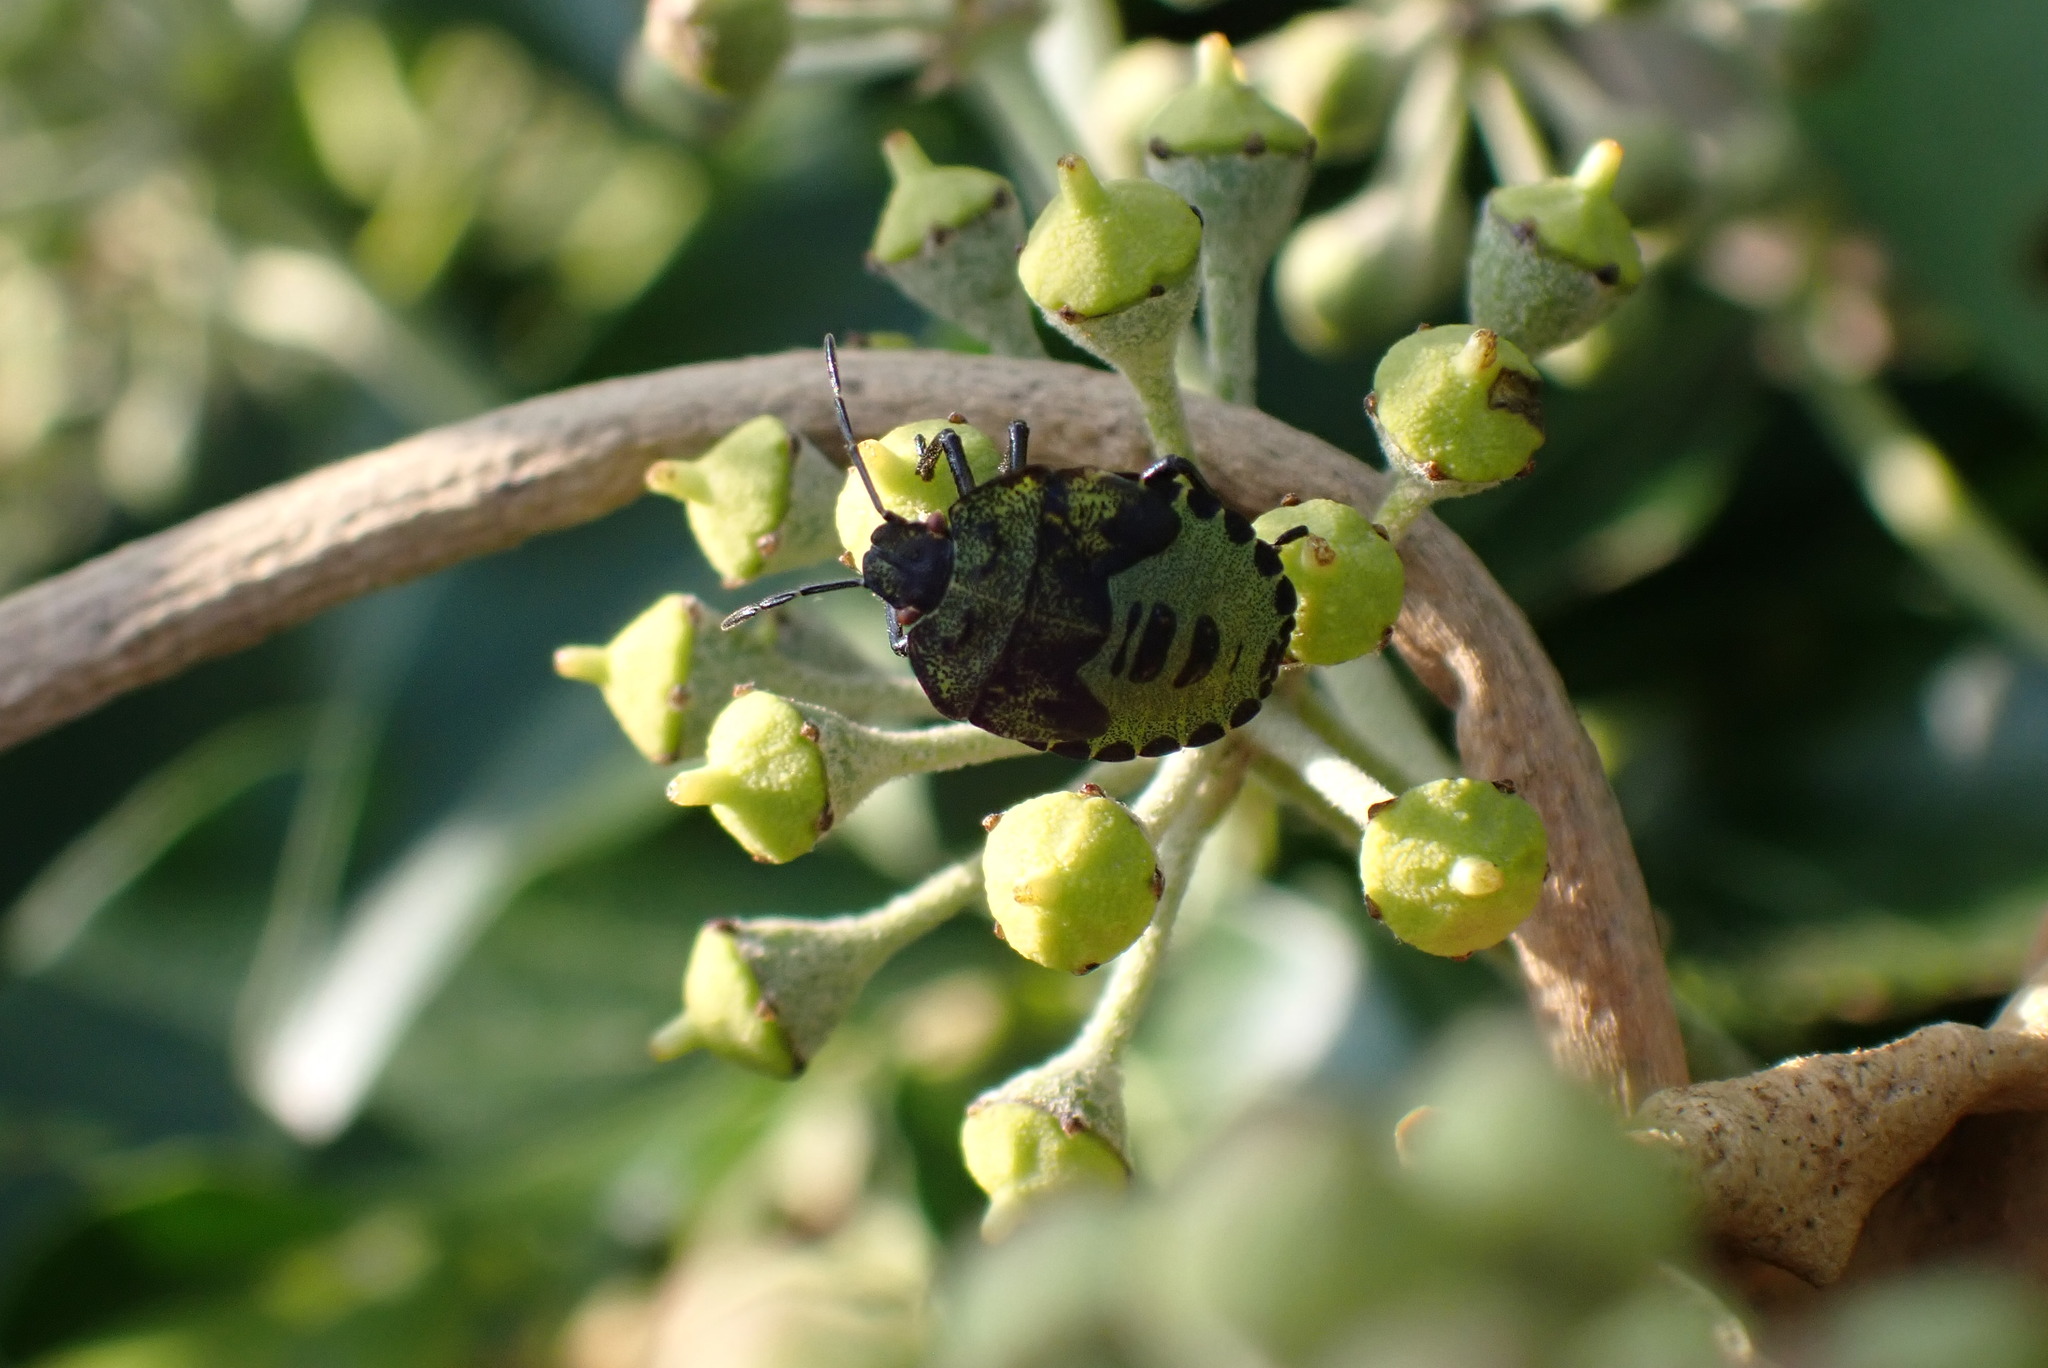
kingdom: Animalia
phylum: Arthropoda
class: Insecta
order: Hemiptera
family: Pentatomidae
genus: Palomena
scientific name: Palomena prasina
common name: Green shieldbug
